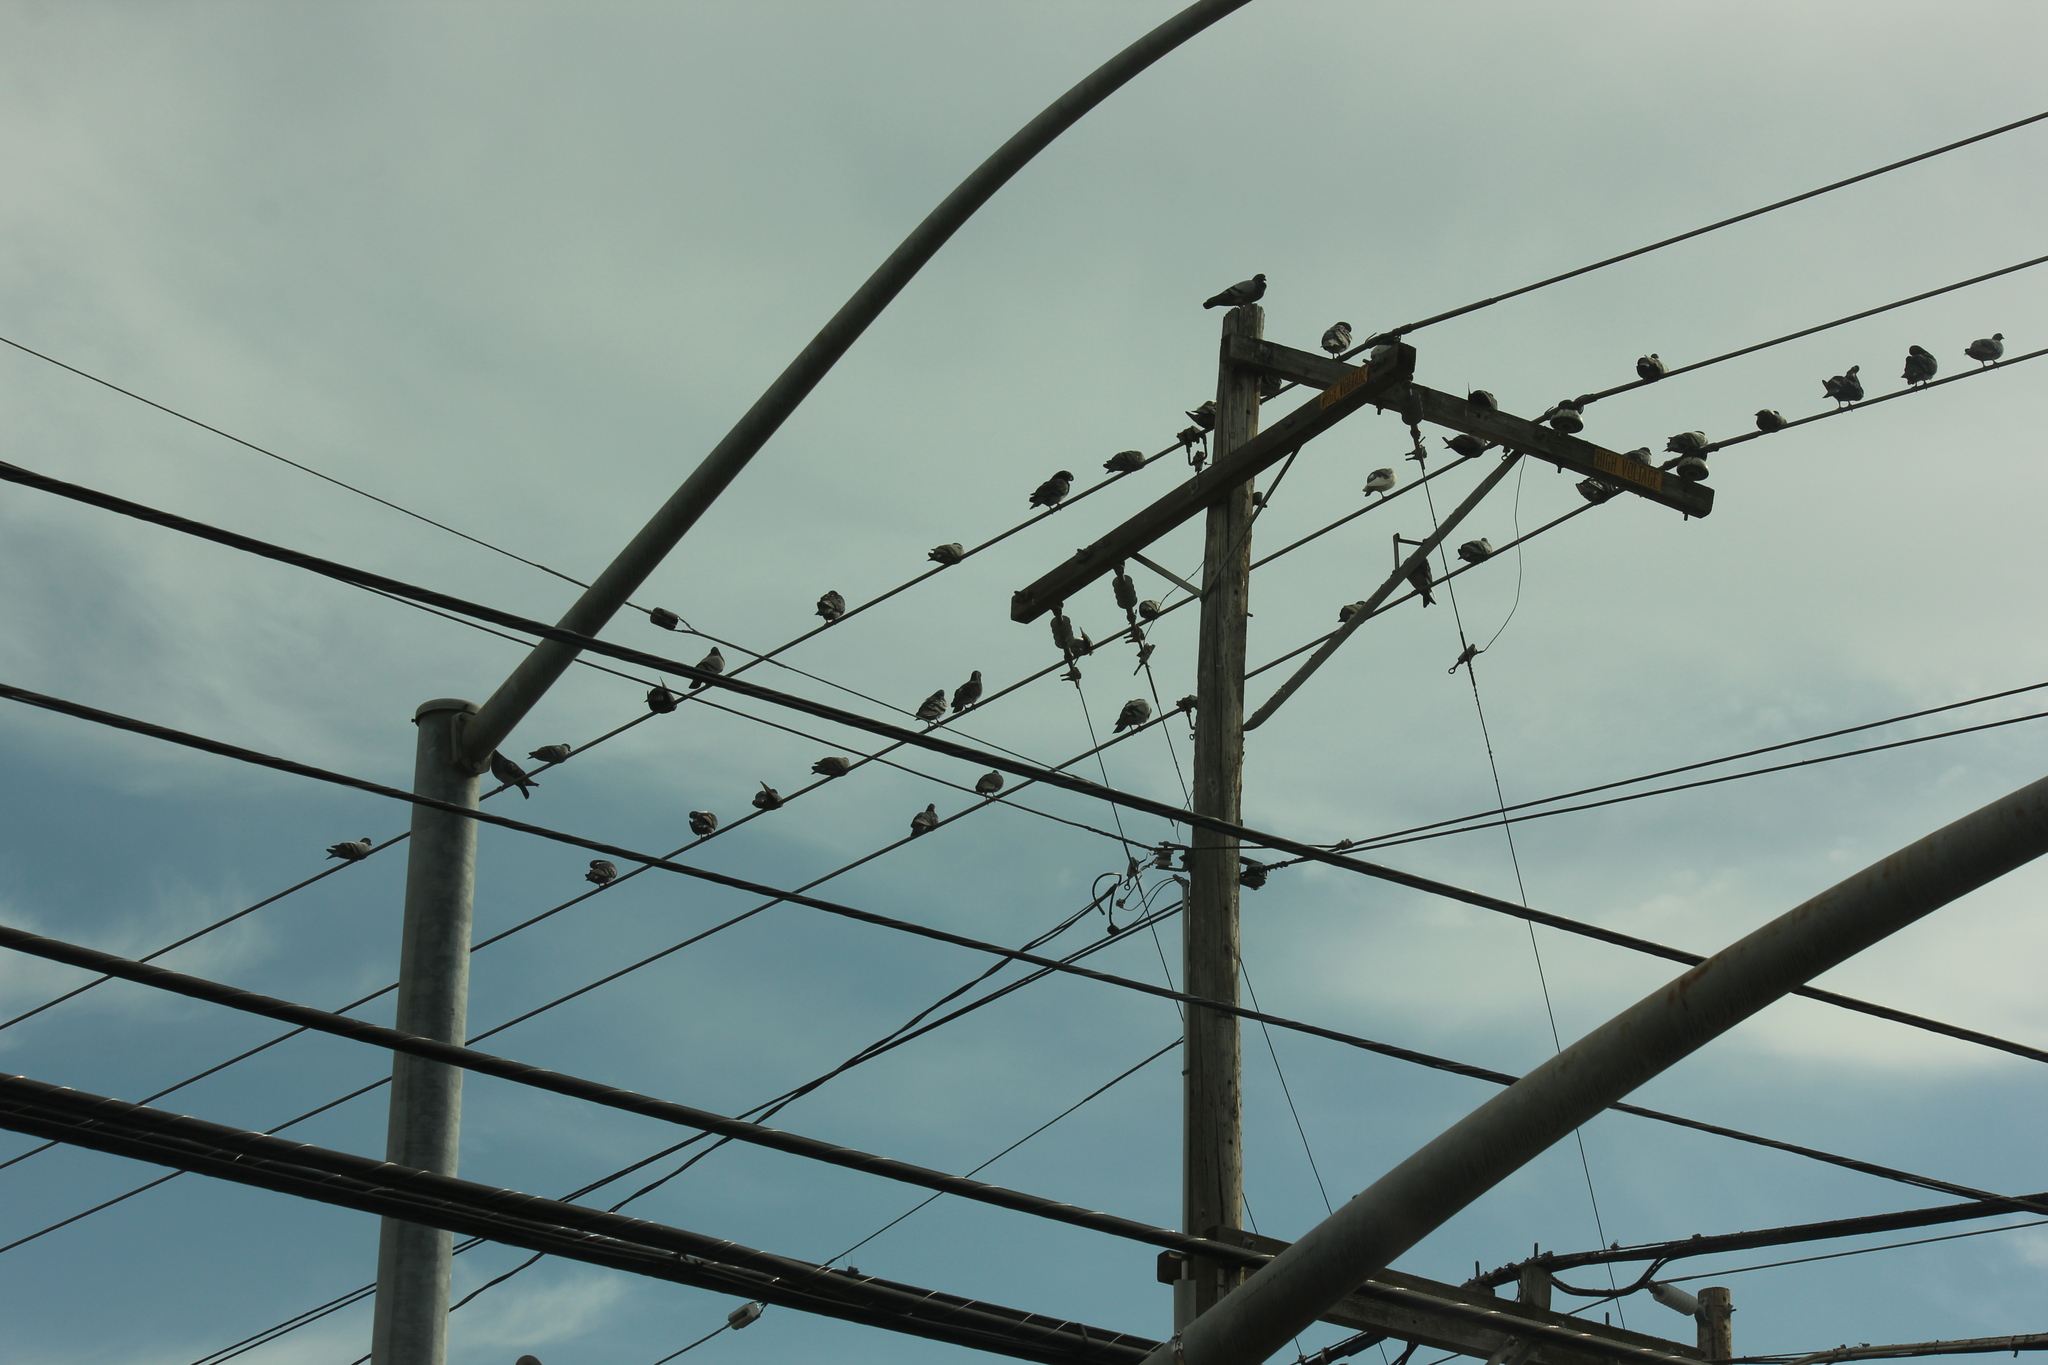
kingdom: Animalia
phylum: Chordata
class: Aves
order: Columbiformes
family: Columbidae
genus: Columba
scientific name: Columba livia
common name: Rock pigeon
